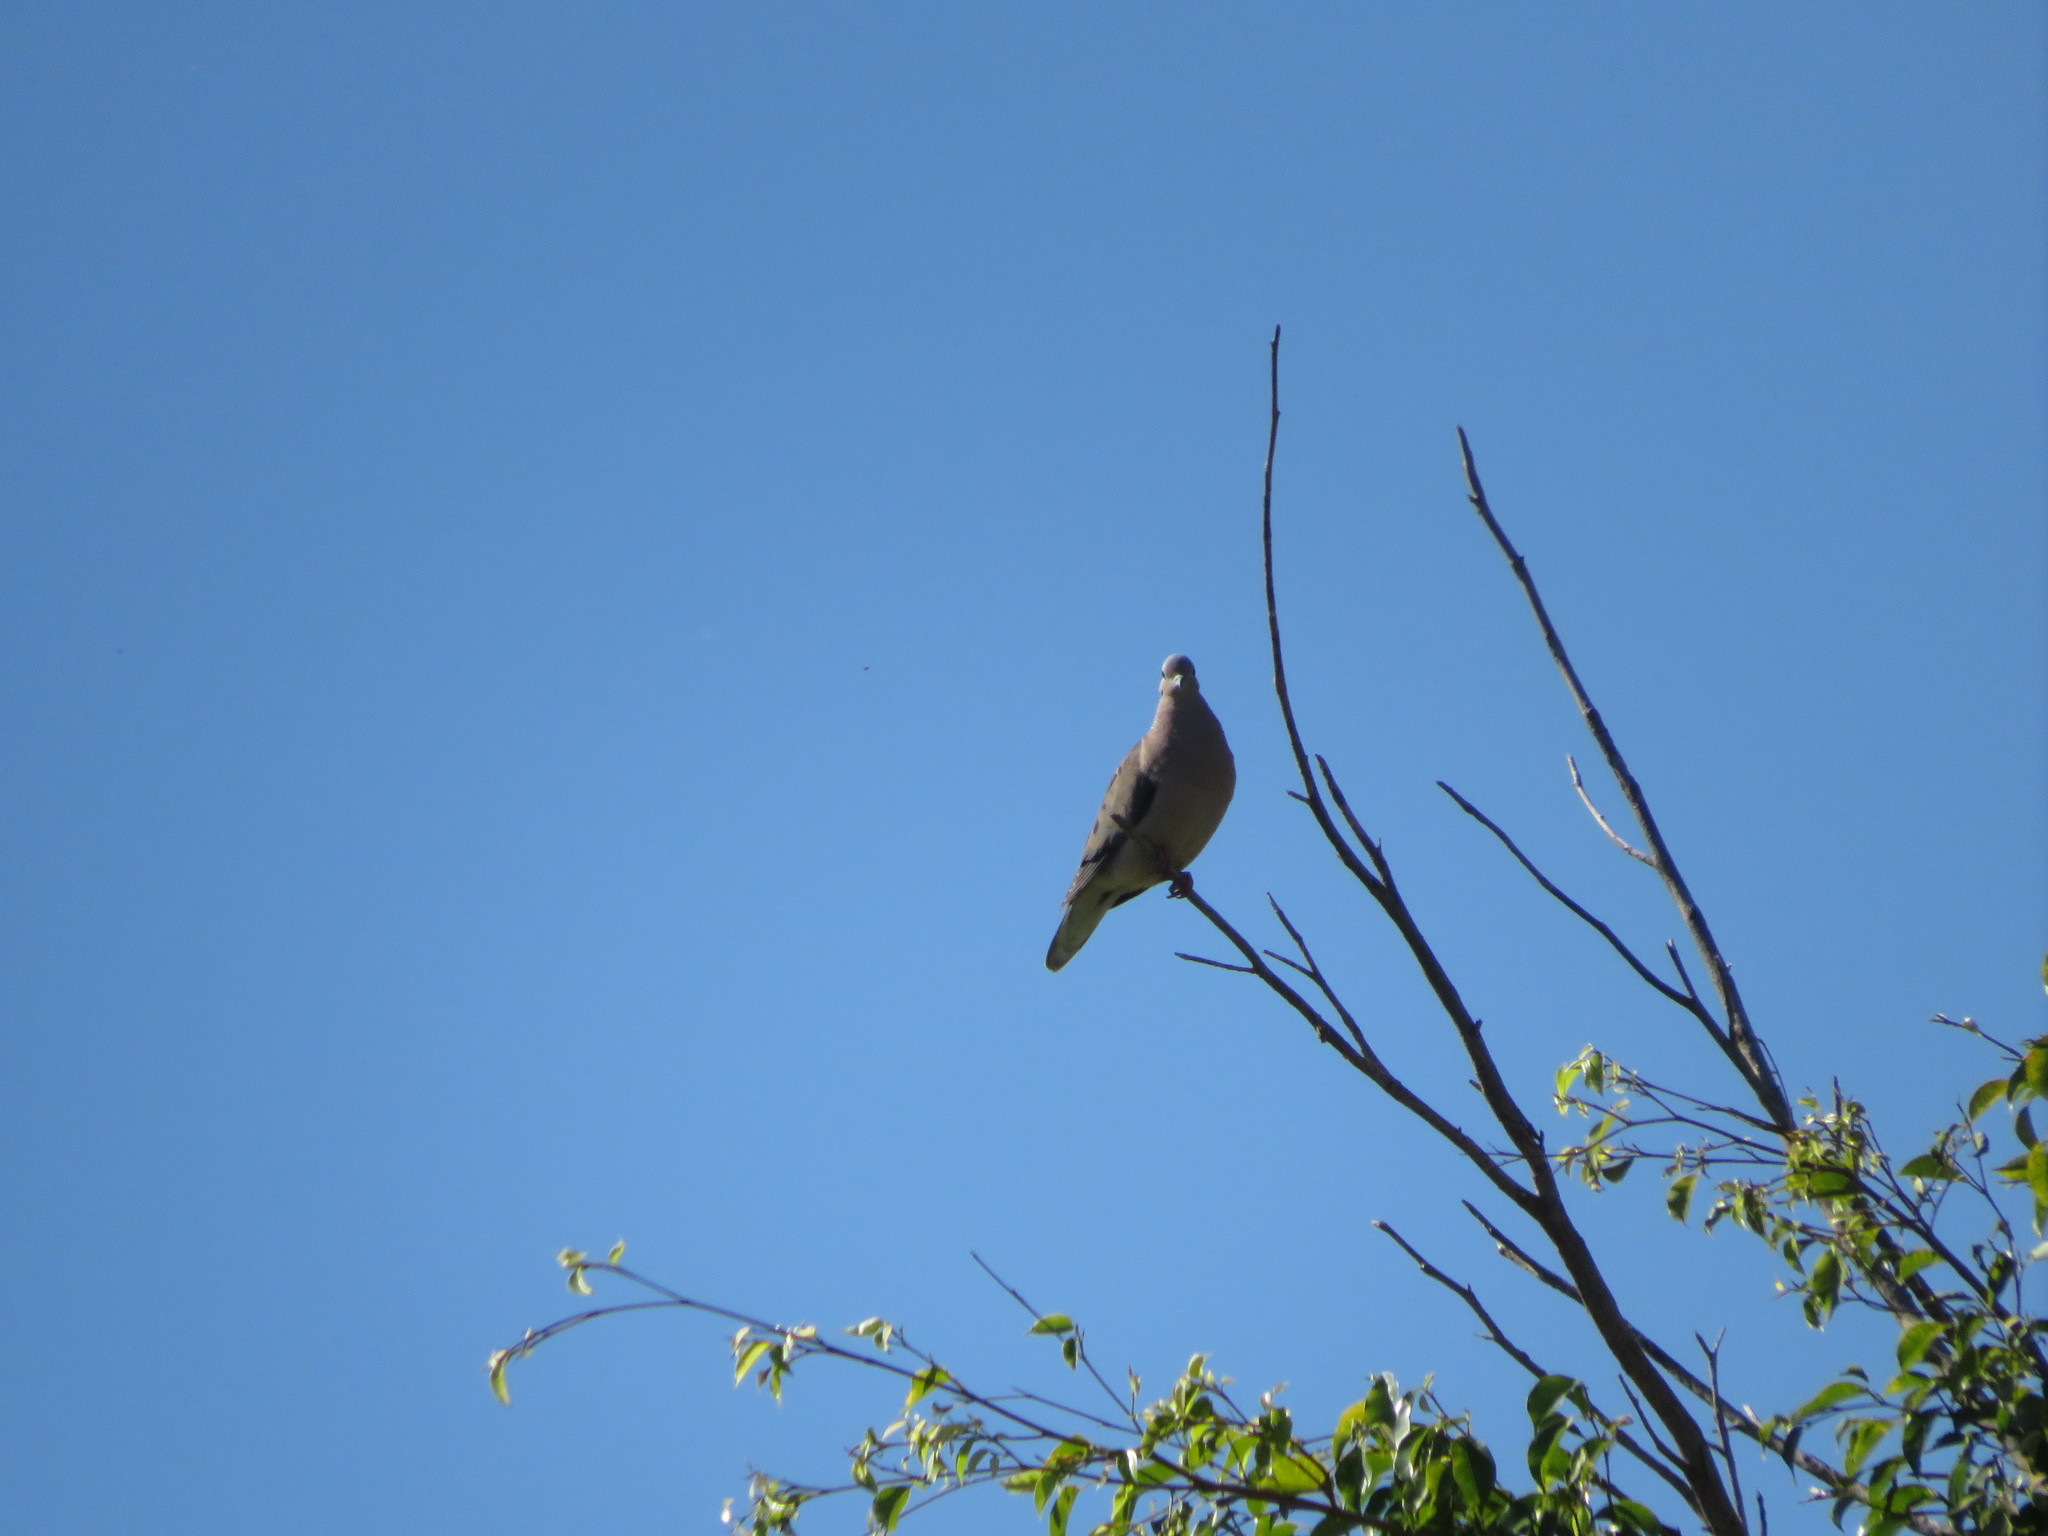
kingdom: Animalia
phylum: Chordata
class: Aves
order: Columbiformes
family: Columbidae
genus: Zenaida
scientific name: Zenaida auriculata
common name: Eared dove
